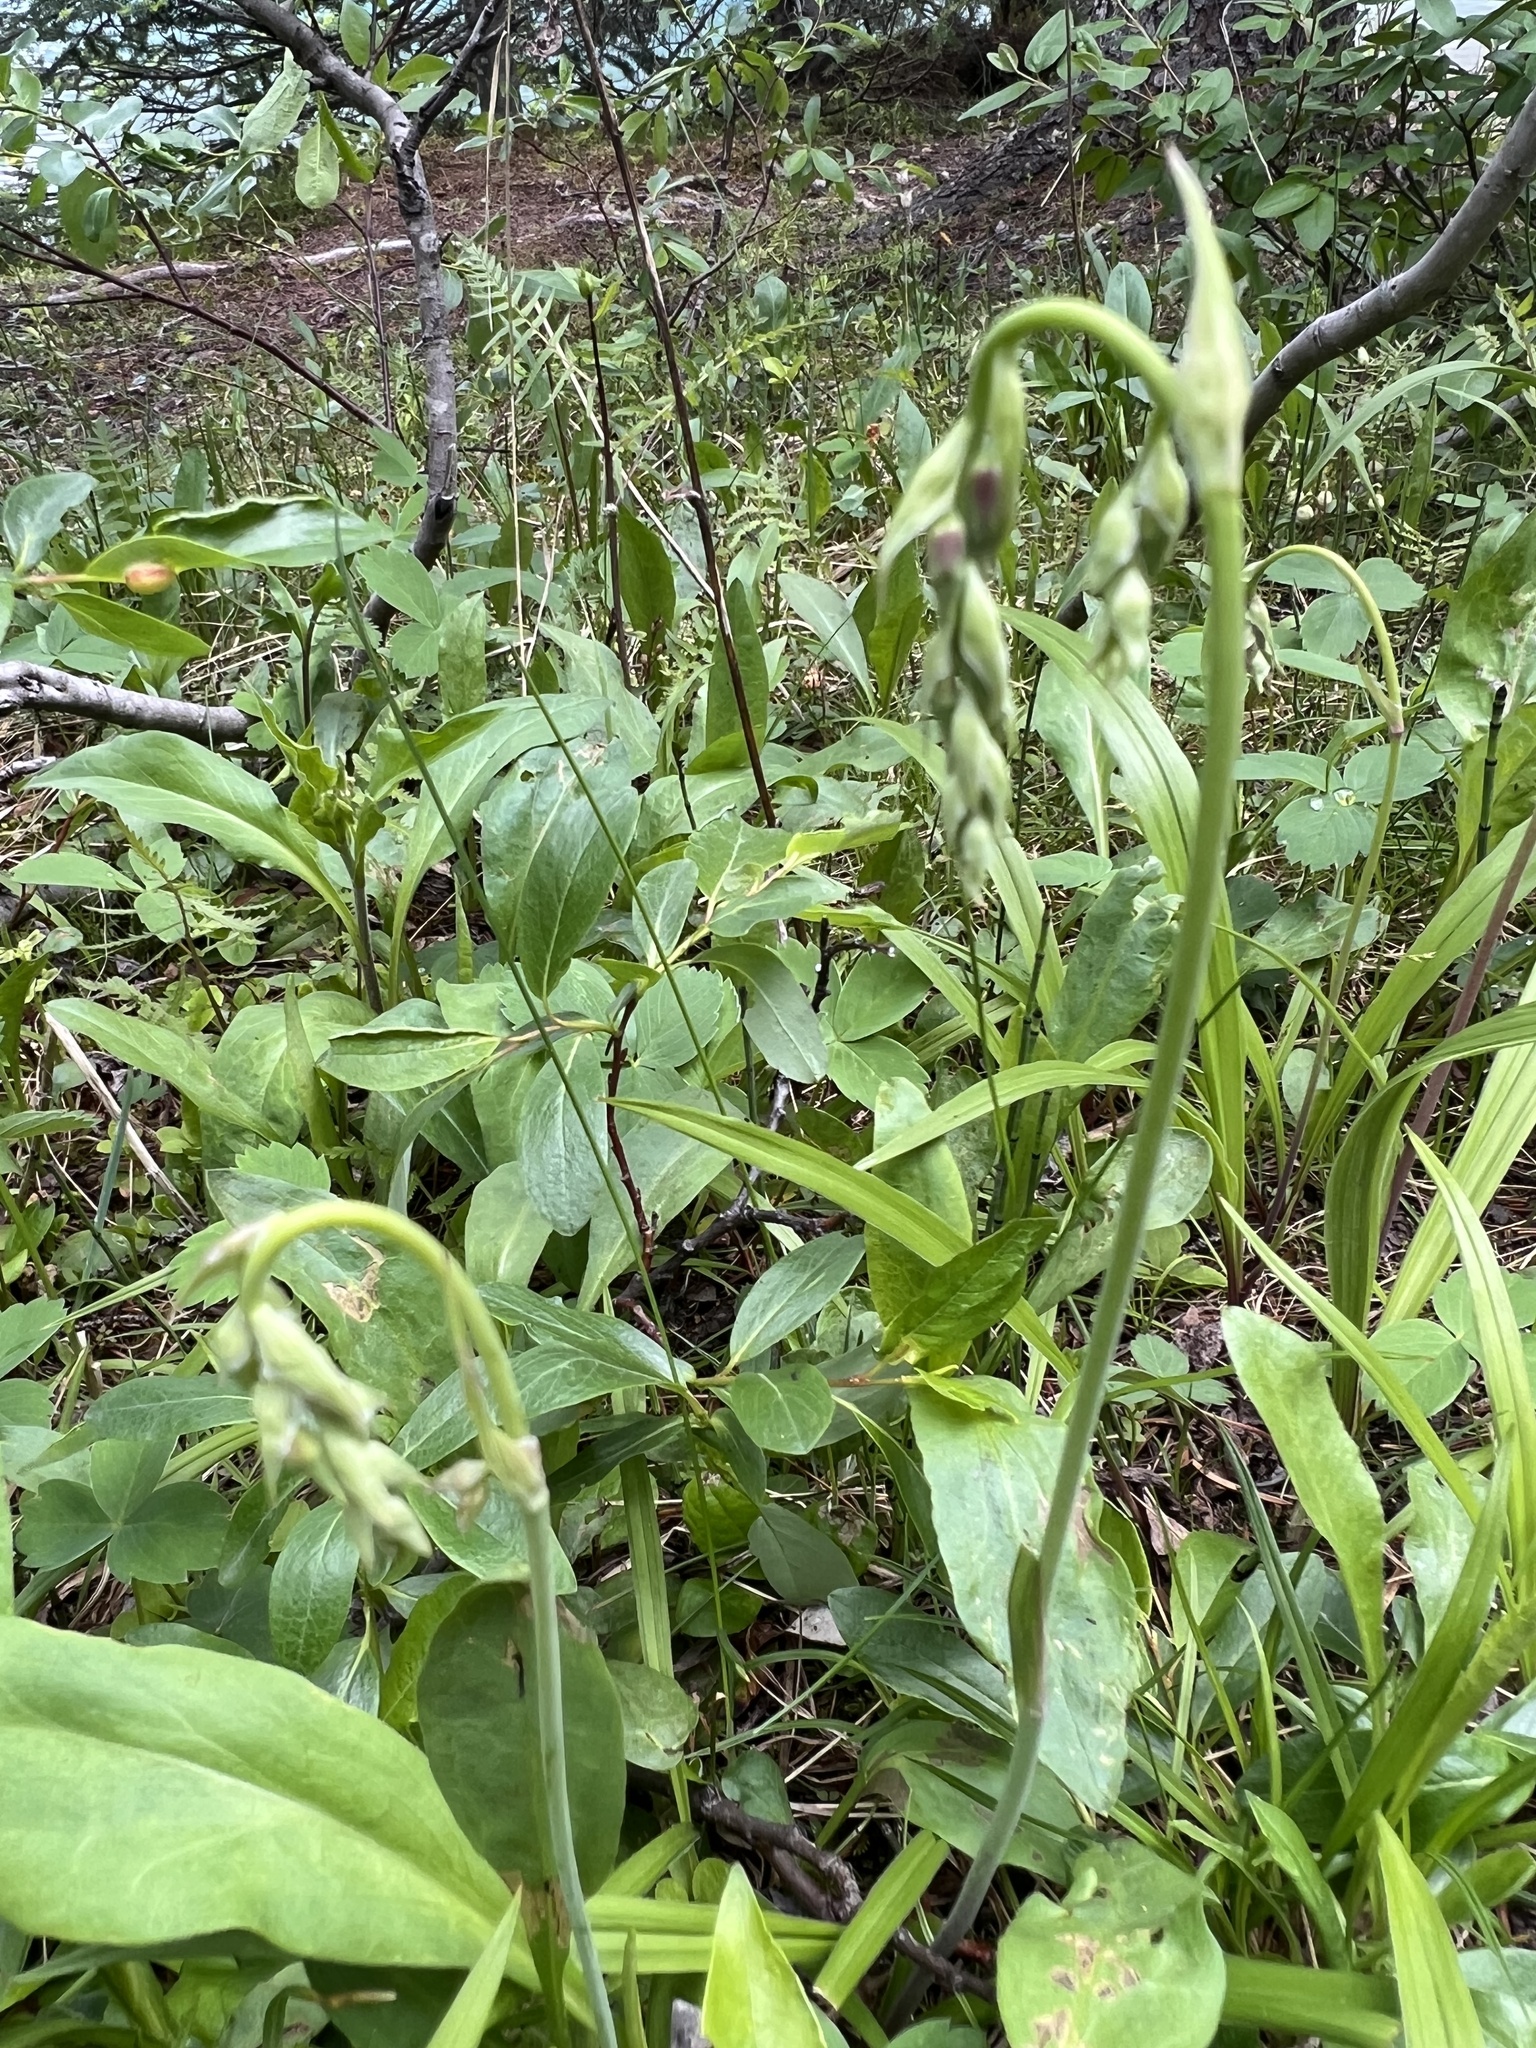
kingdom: Plantae
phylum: Tracheophyta
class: Liliopsida
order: Liliales
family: Melanthiaceae
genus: Anticlea
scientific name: Anticlea occidentalis
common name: Bronze-bells
